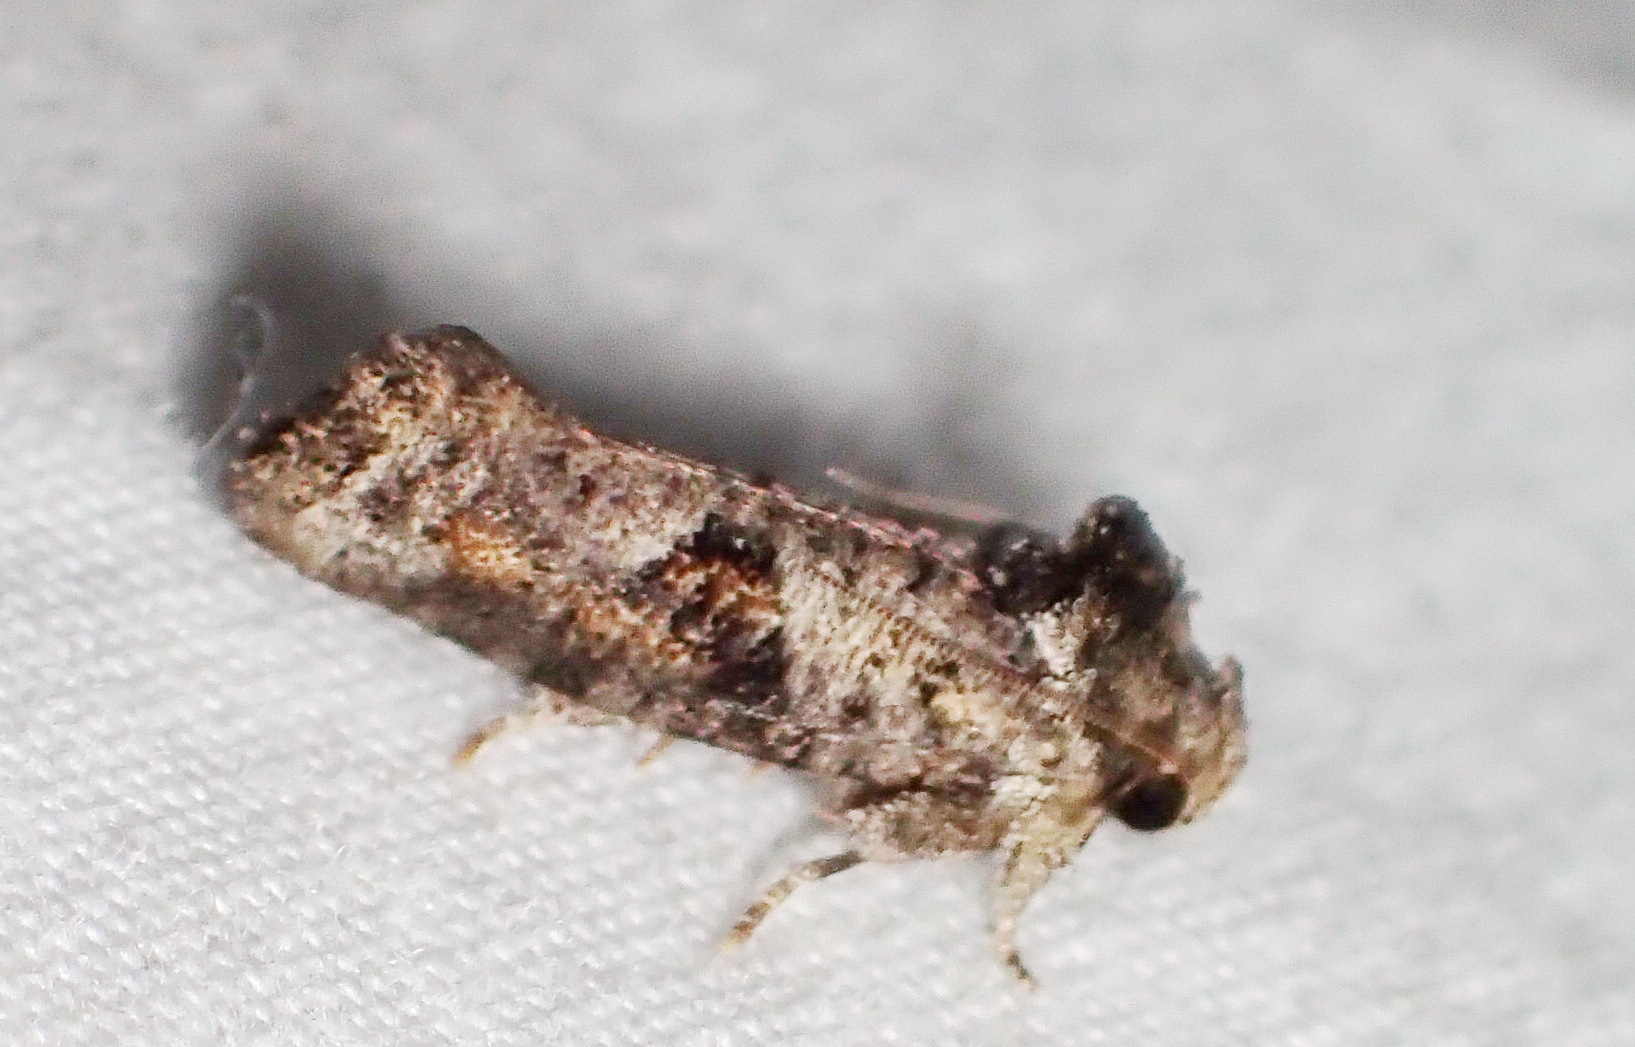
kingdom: Animalia
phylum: Arthropoda
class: Insecta
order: Lepidoptera
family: Tineidae
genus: Acrolophus
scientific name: Acrolophus piger
